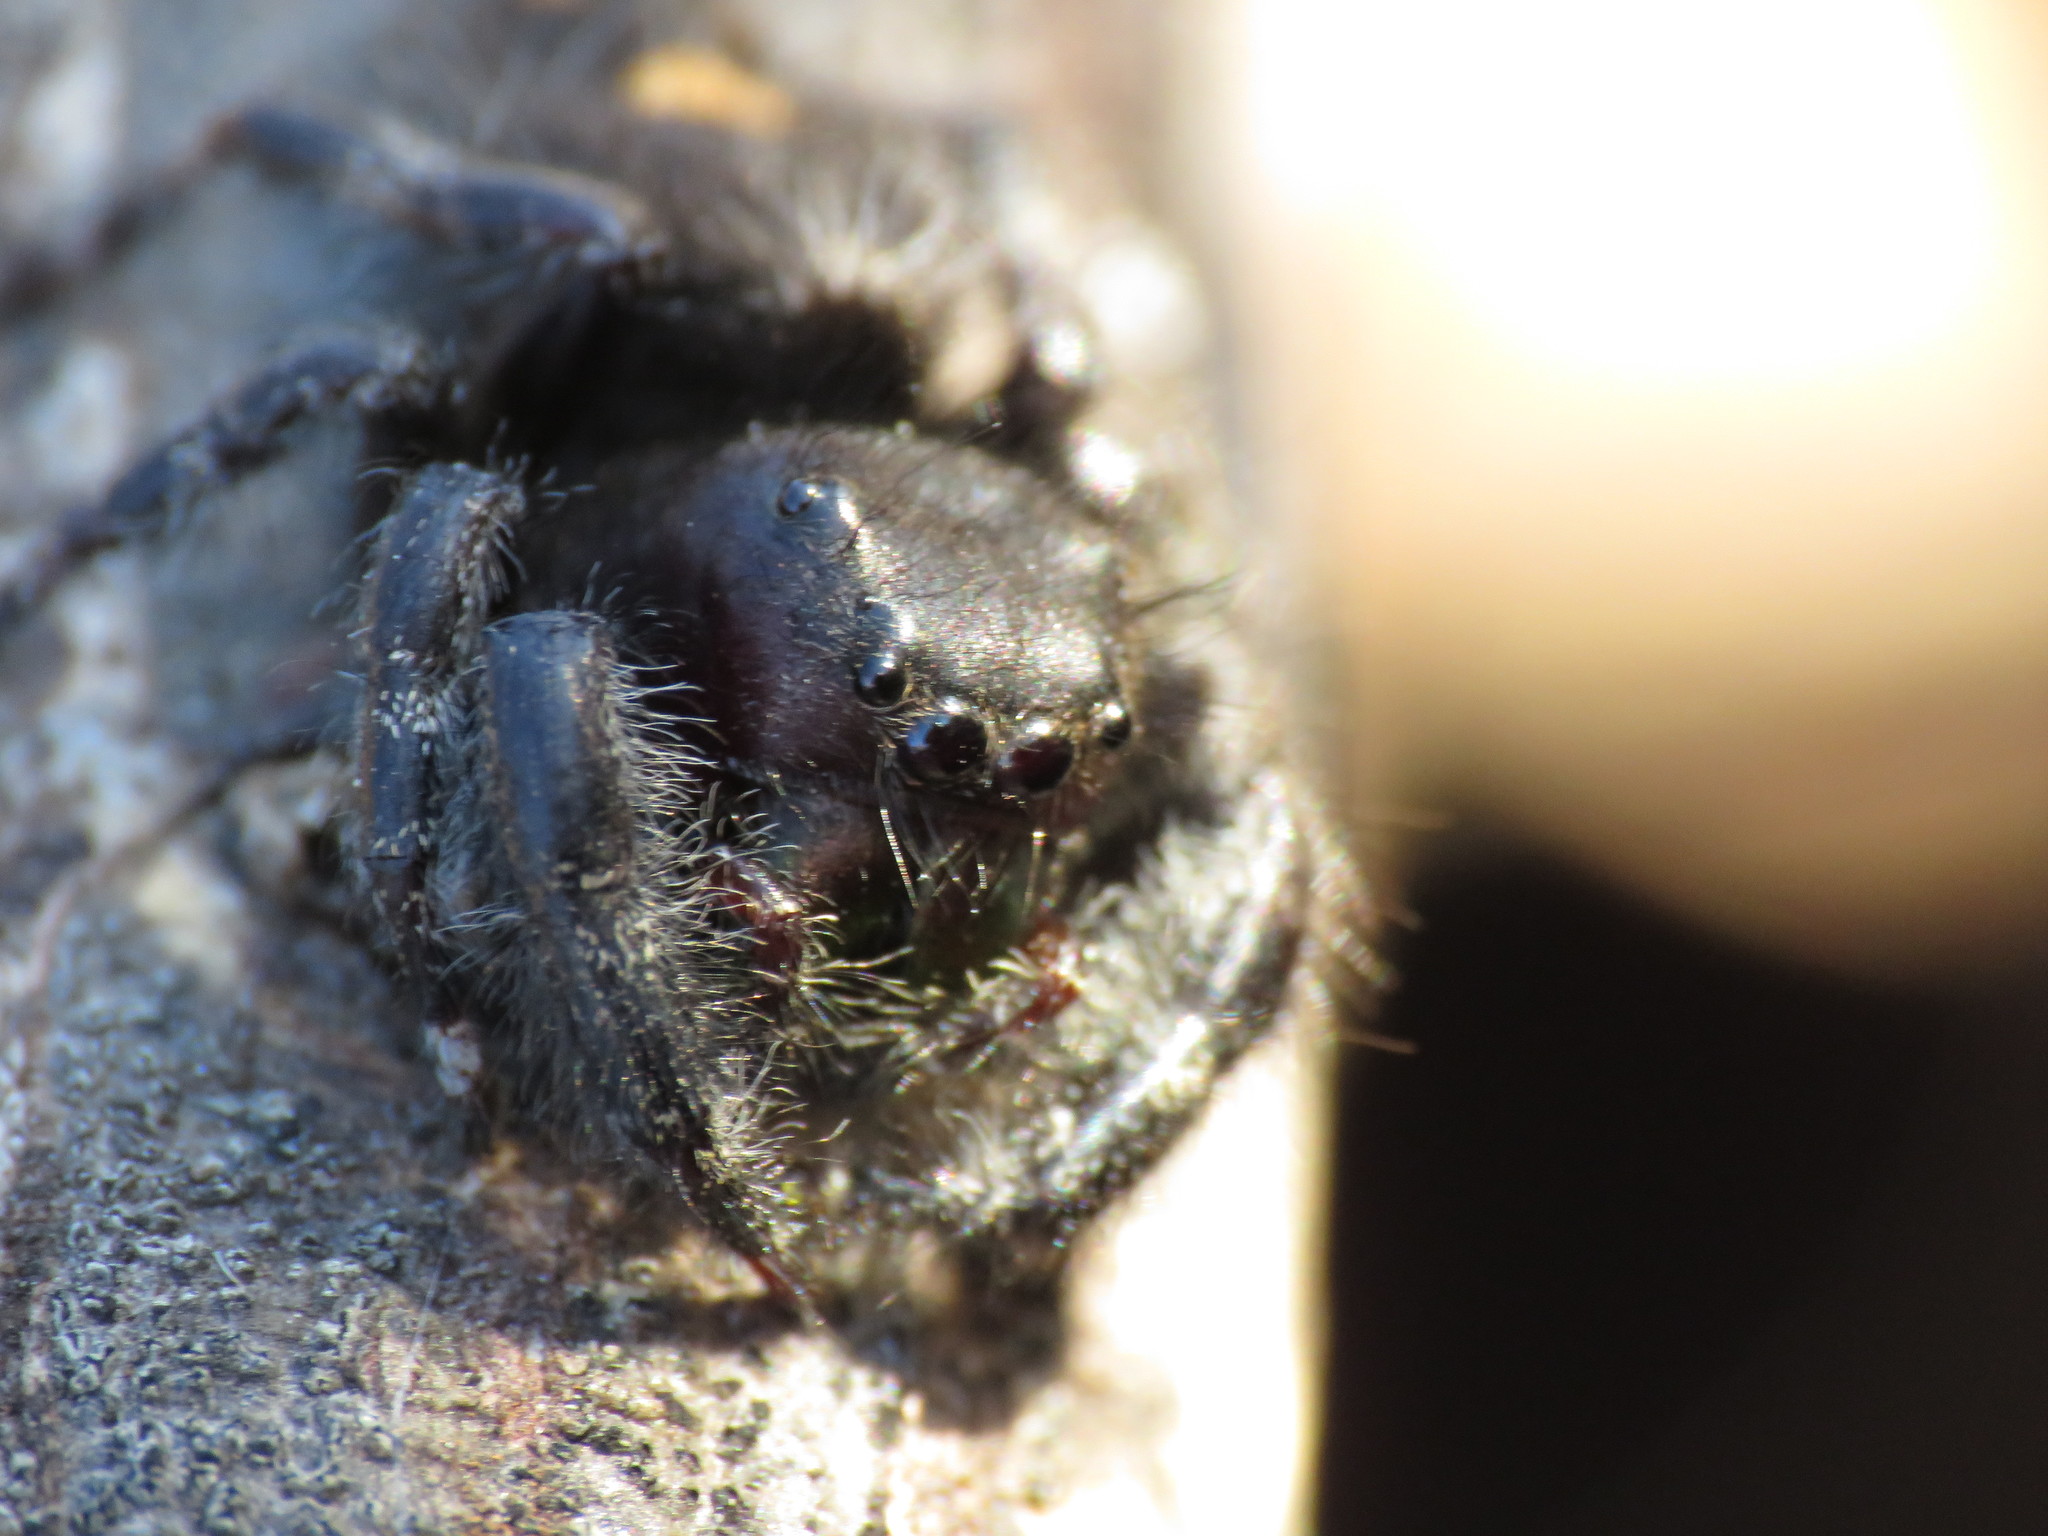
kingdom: Animalia
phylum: Arthropoda
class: Arachnida
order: Araneae
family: Salticidae
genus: Phidippus
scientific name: Phidippus audax
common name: Bold jumper
